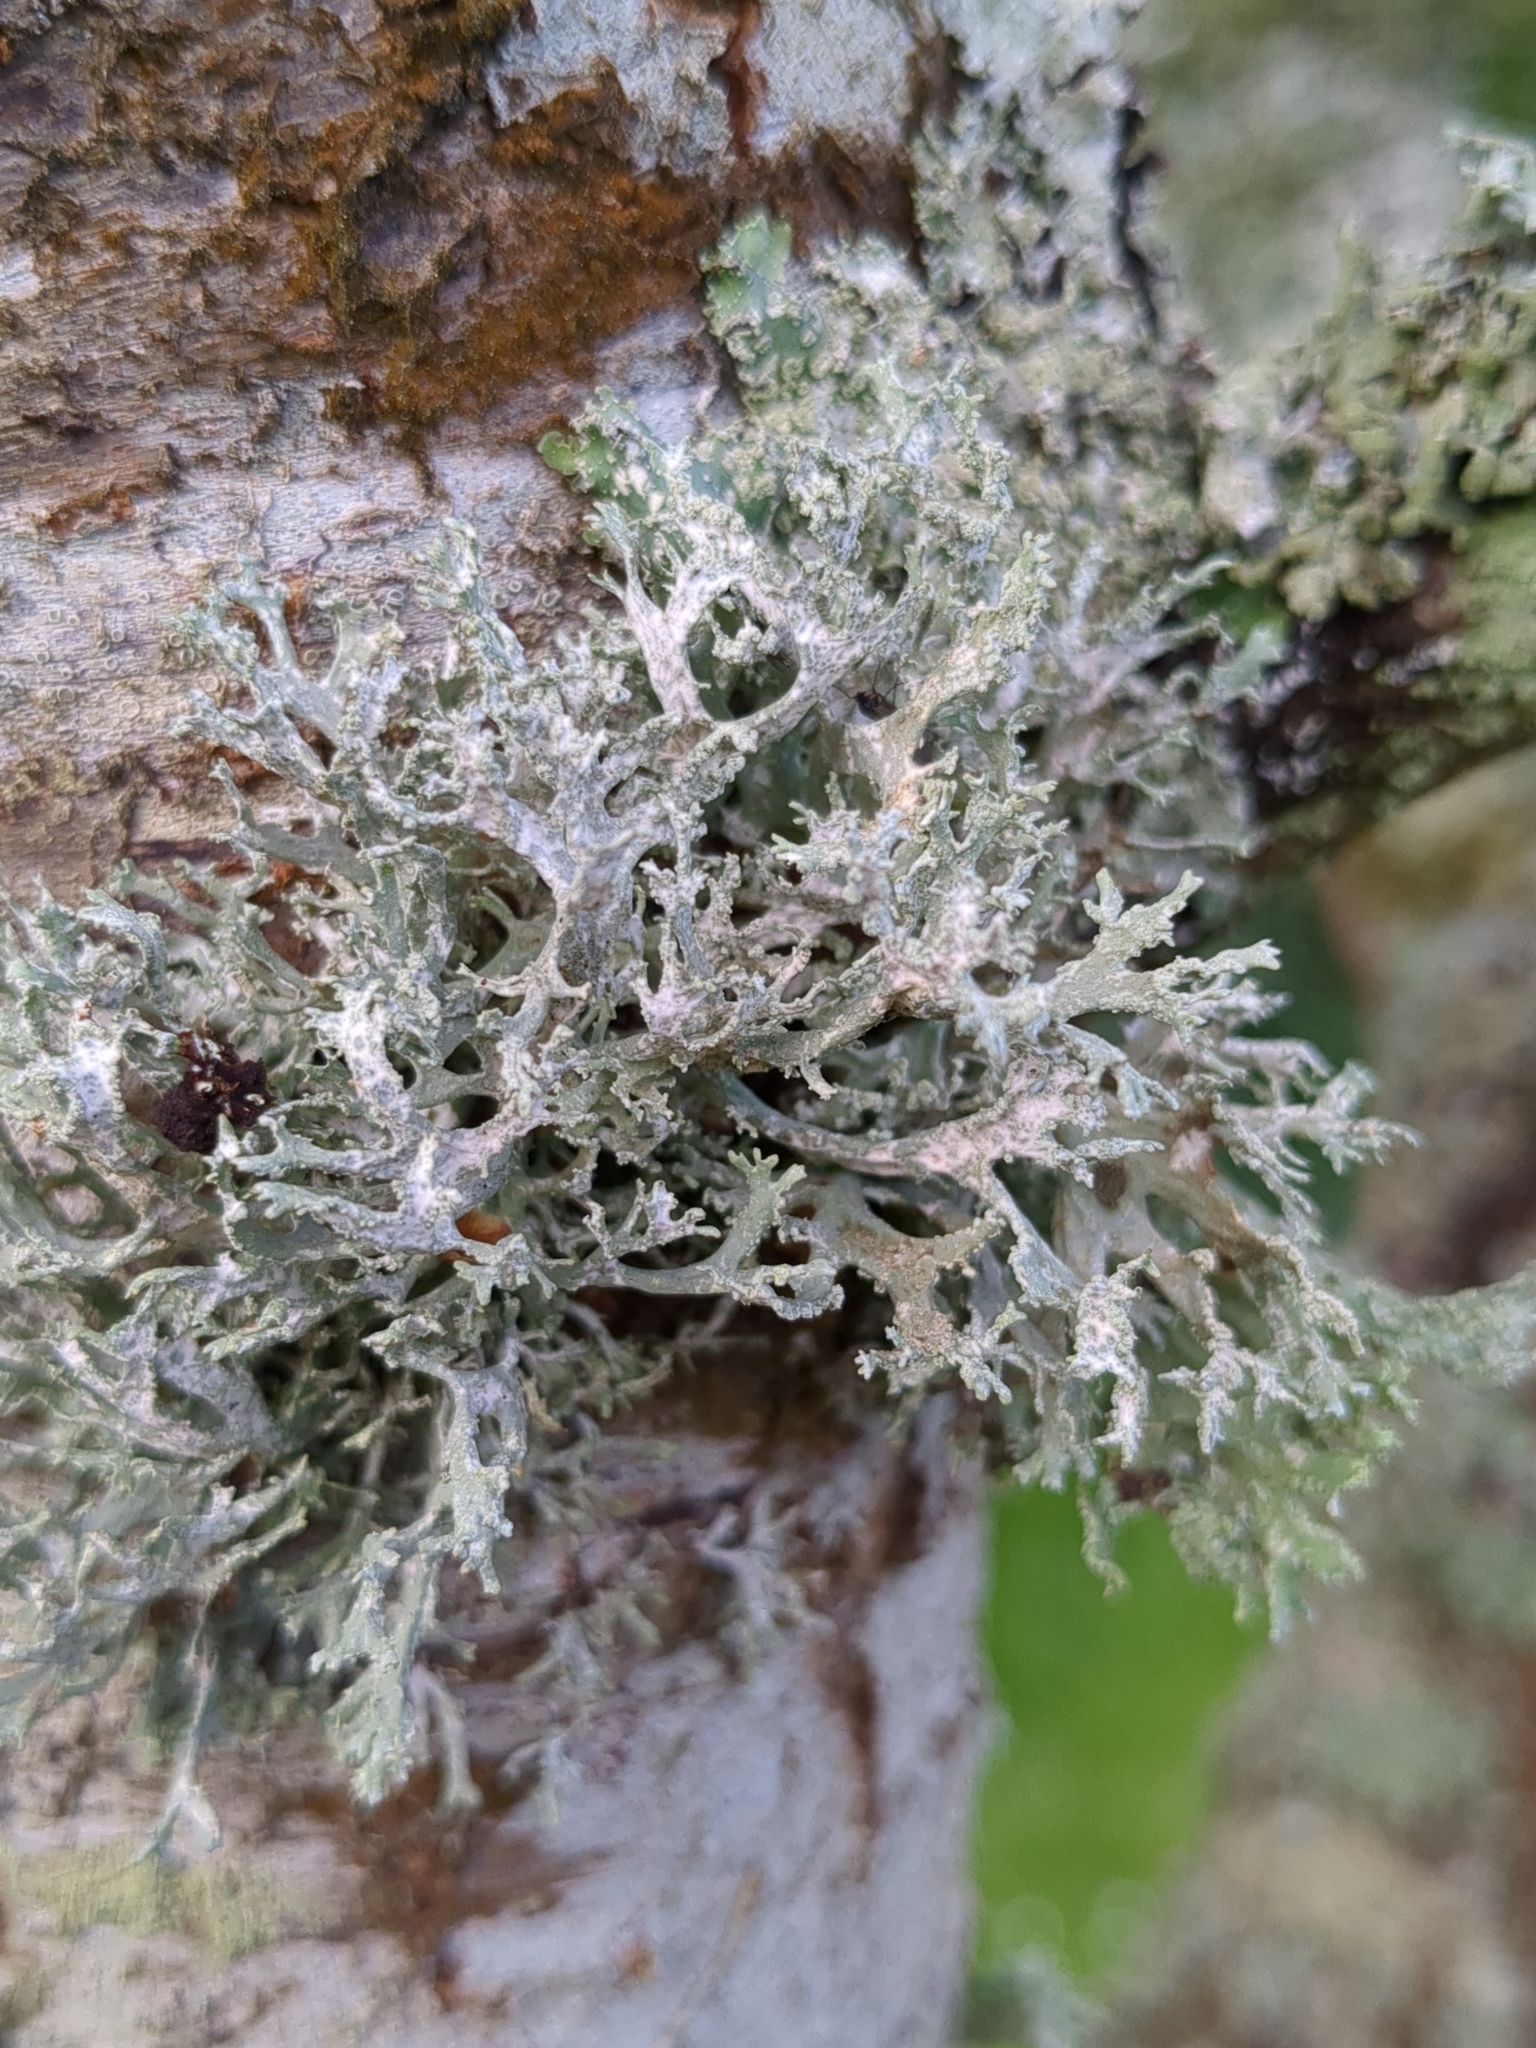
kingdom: Fungi
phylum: Ascomycota
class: Lecanoromycetes
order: Lecanorales
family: Parmeliaceae
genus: Evernia
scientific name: Evernia prunastri
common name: Oak moss
